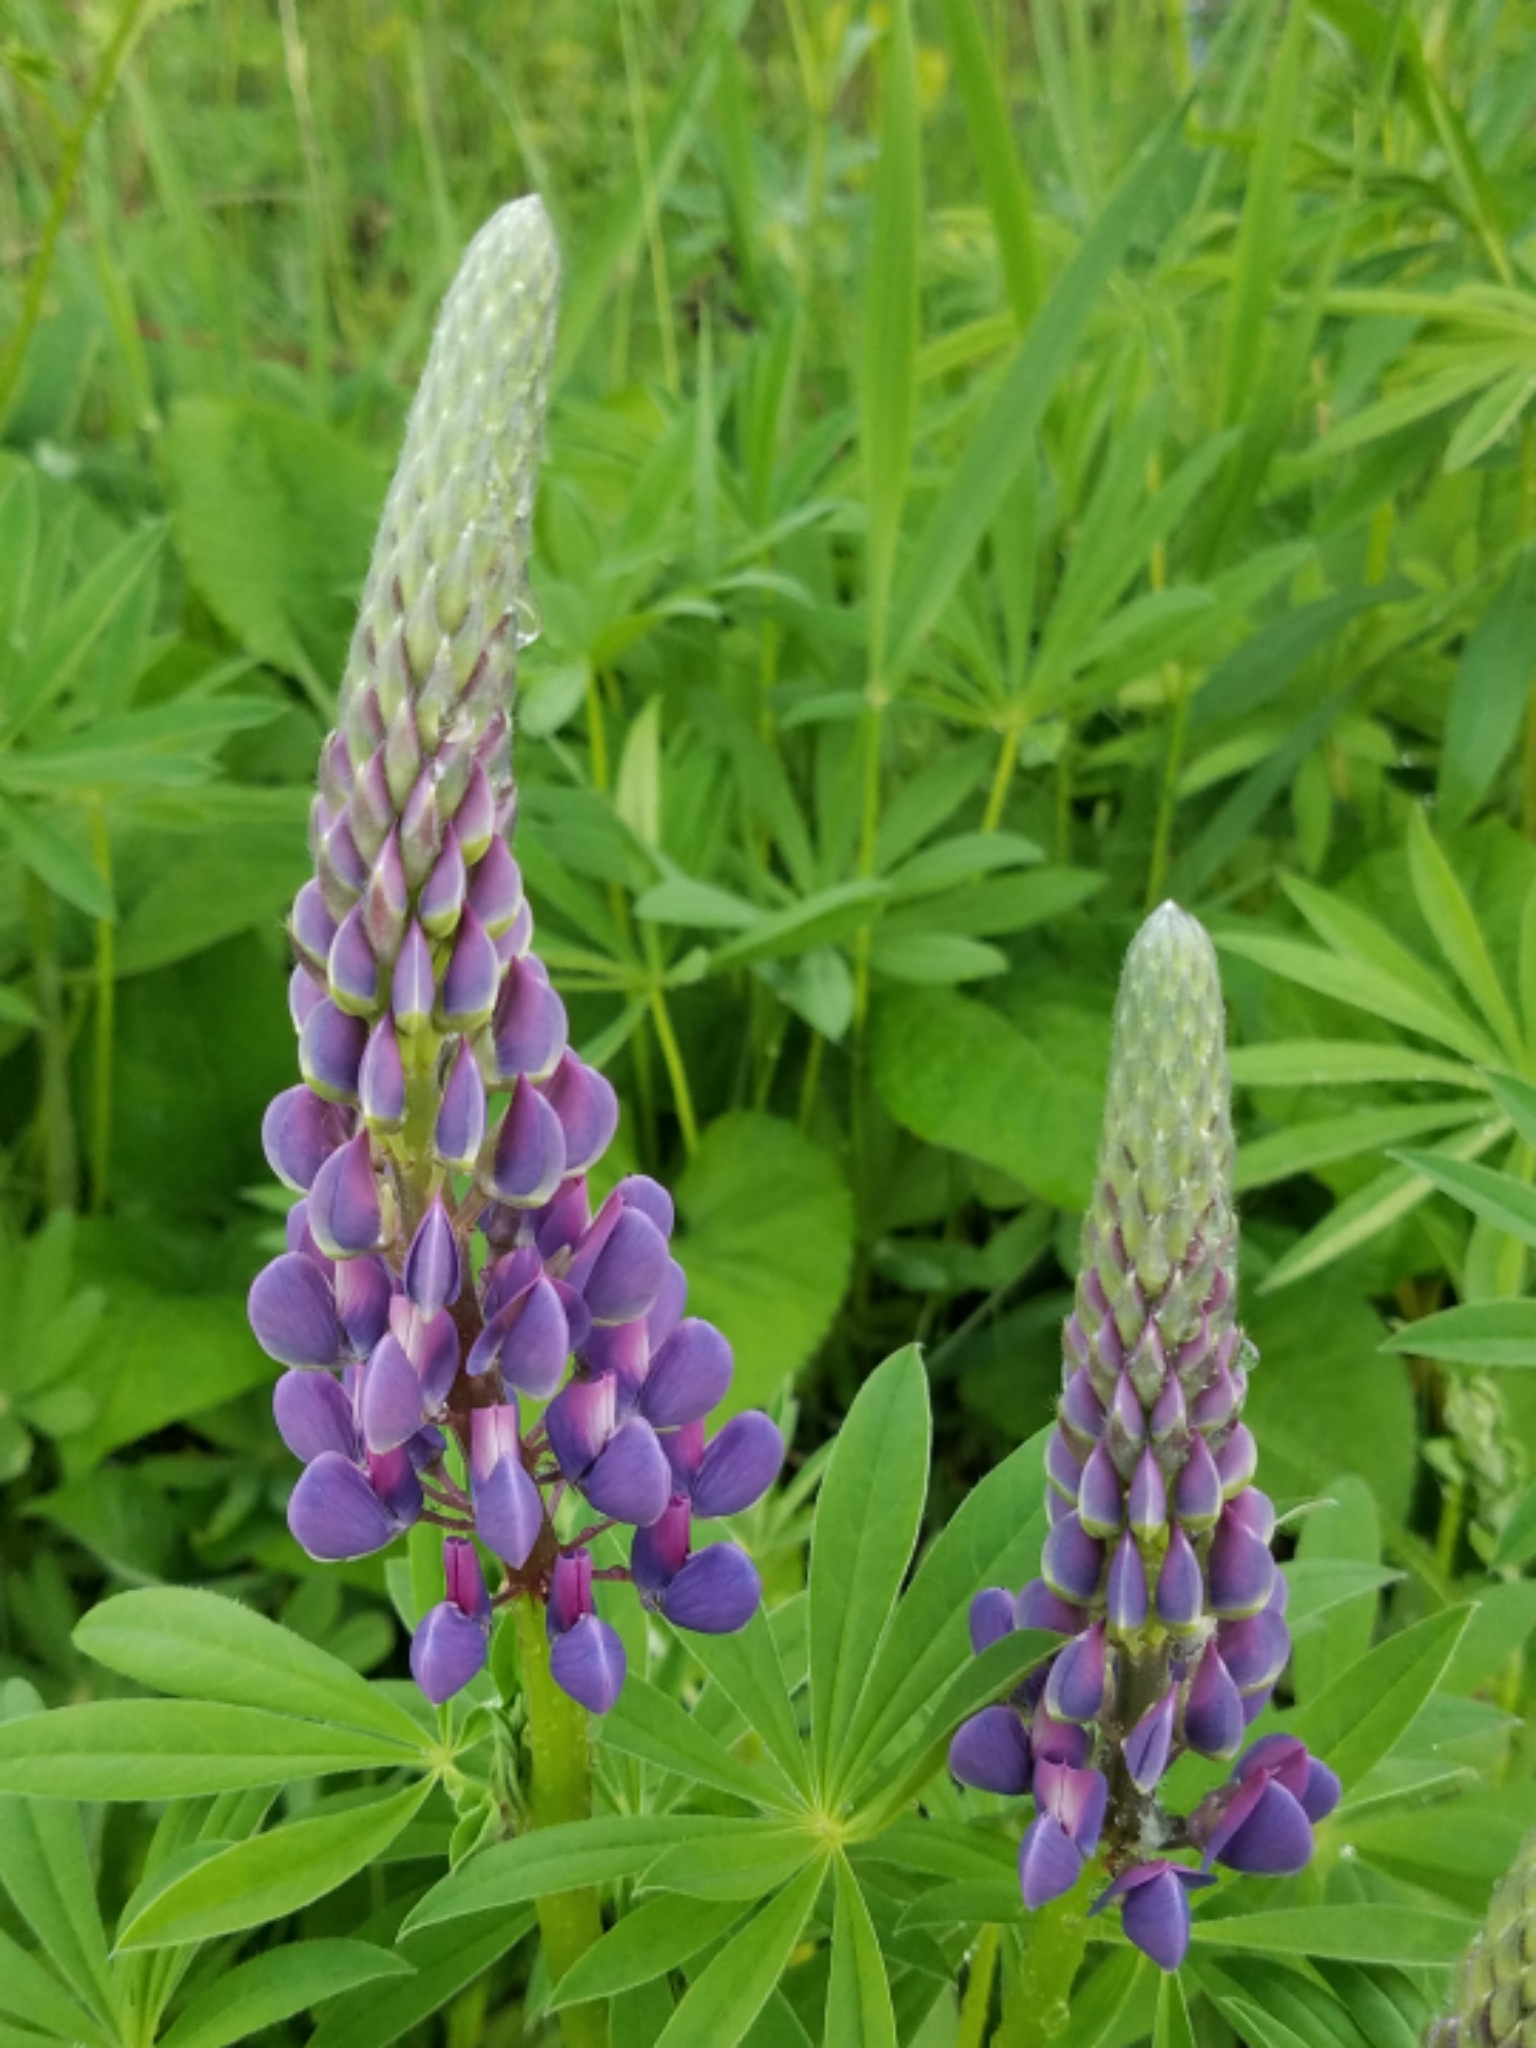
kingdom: Plantae
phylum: Tracheophyta
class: Magnoliopsida
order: Fabales
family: Fabaceae
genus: Lupinus
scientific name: Lupinus polyphyllus
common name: Garden lupin
